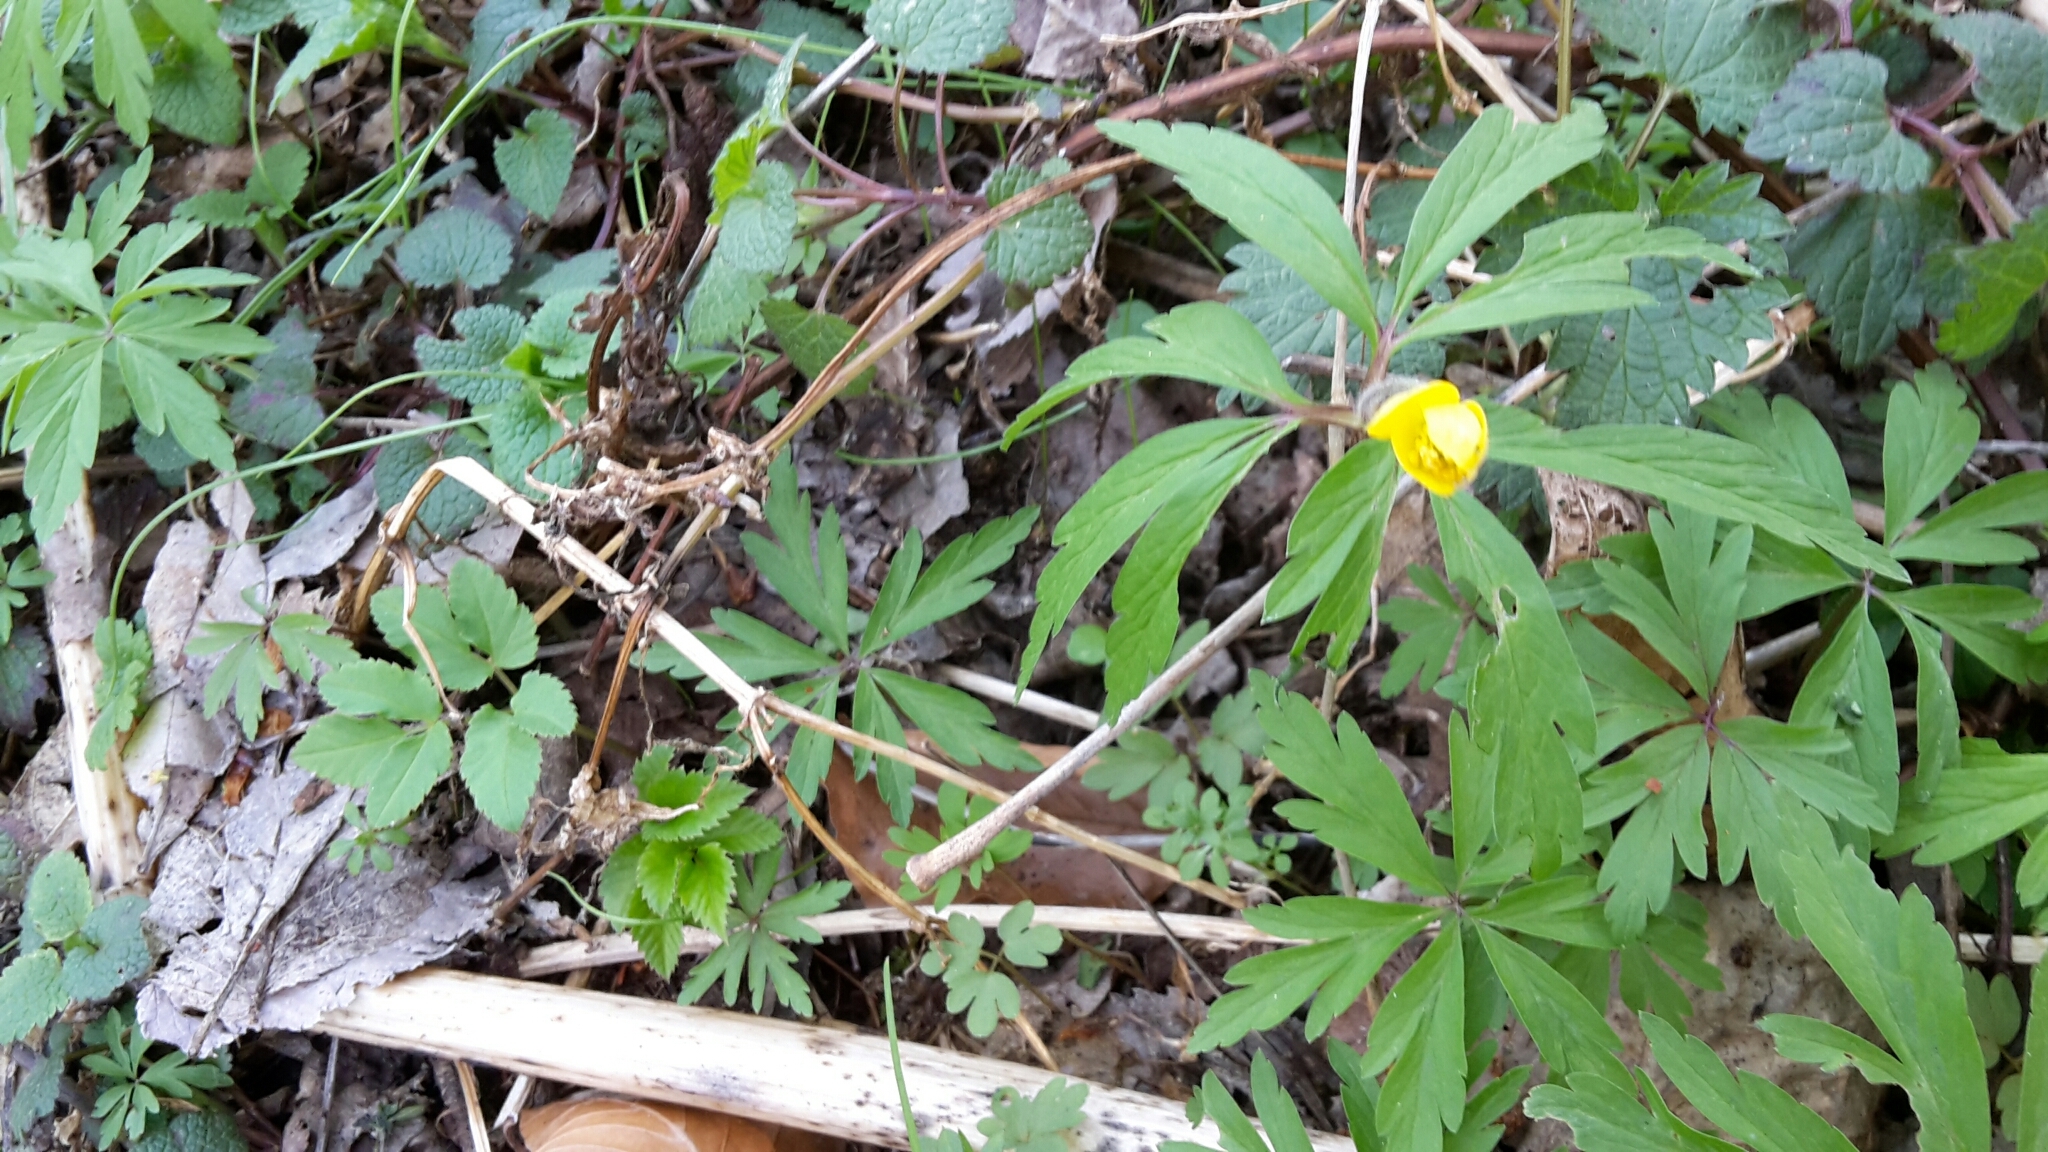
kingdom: Plantae
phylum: Tracheophyta
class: Magnoliopsida
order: Ranunculales
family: Ranunculaceae
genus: Anemone
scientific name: Anemone ranunculoides
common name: Yellow anemone
